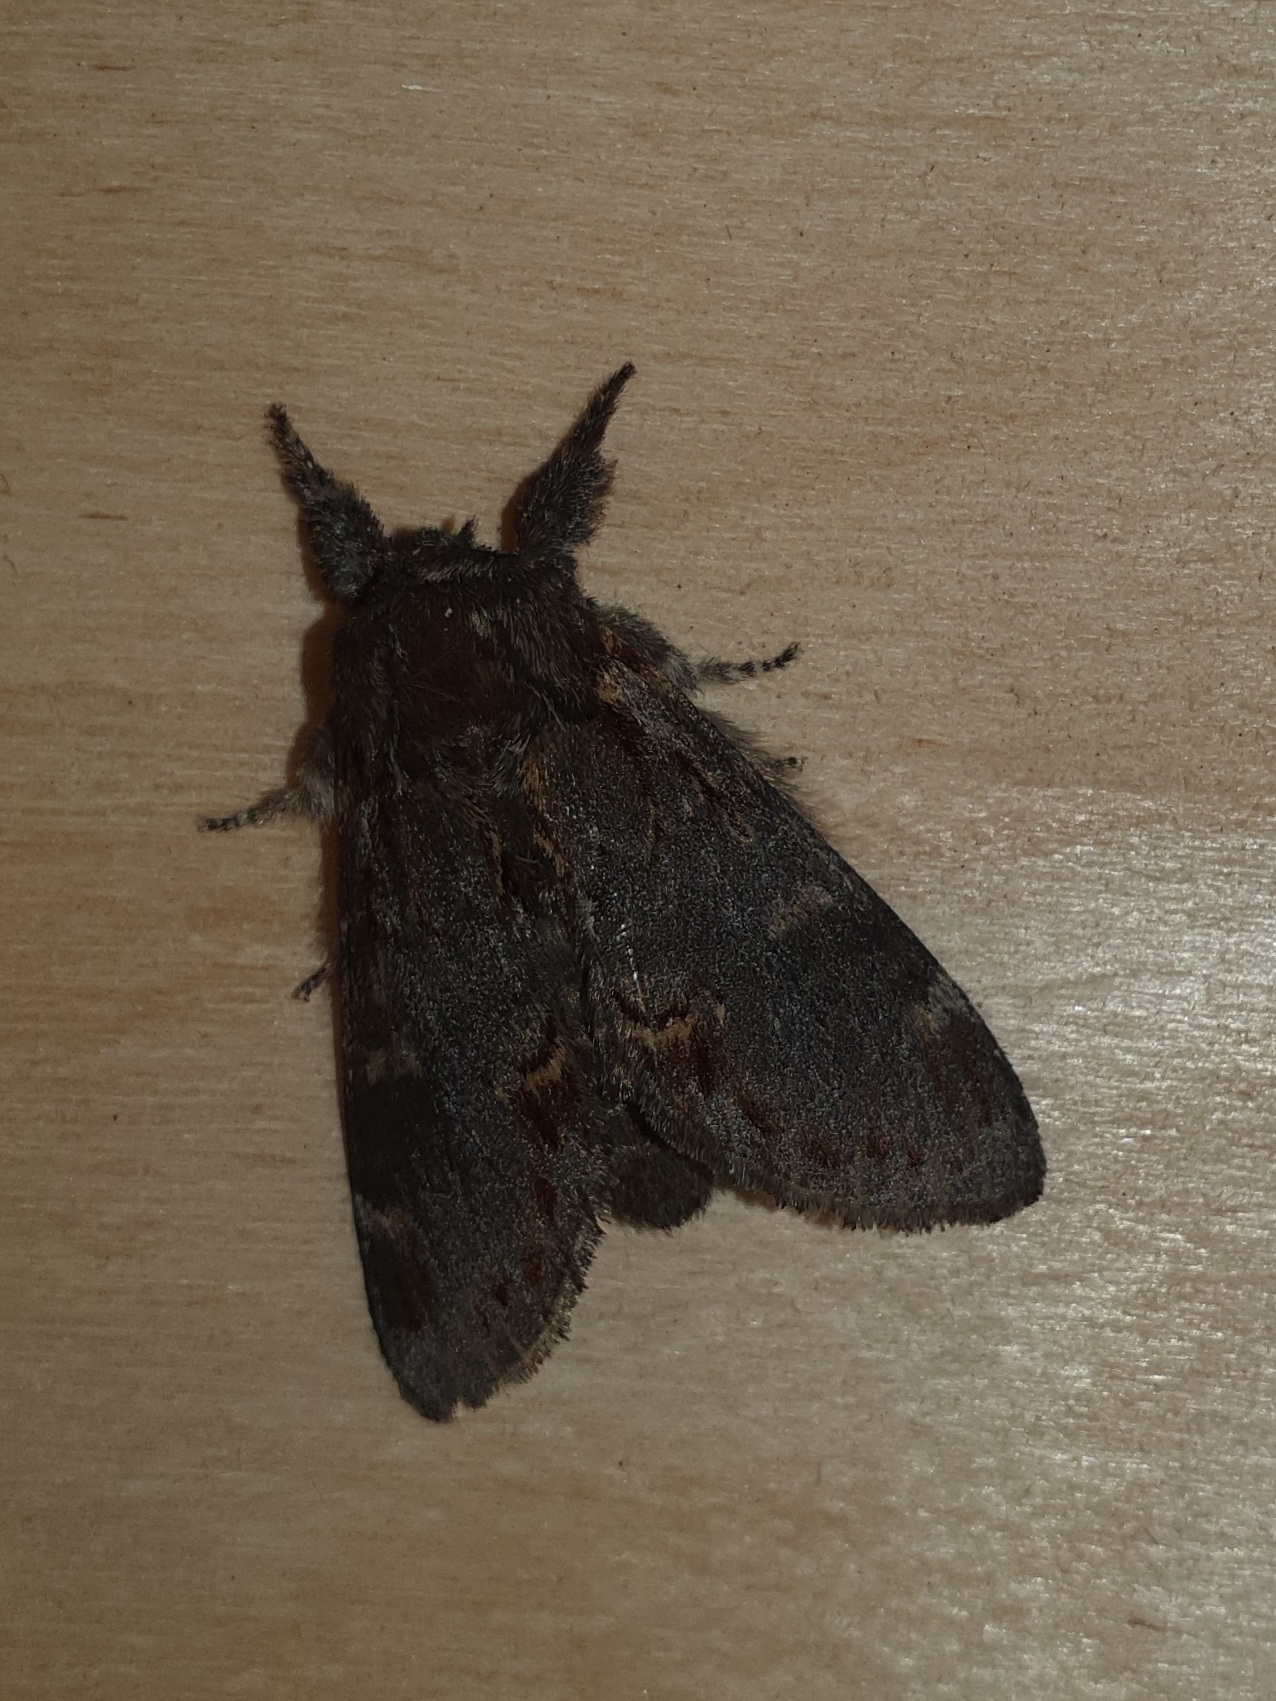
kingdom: Animalia
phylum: Arthropoda
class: Insecta
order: Lepidoptera
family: Notodontidae
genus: Notodonta
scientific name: Notodonta dromedarius
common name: Iron prominent
